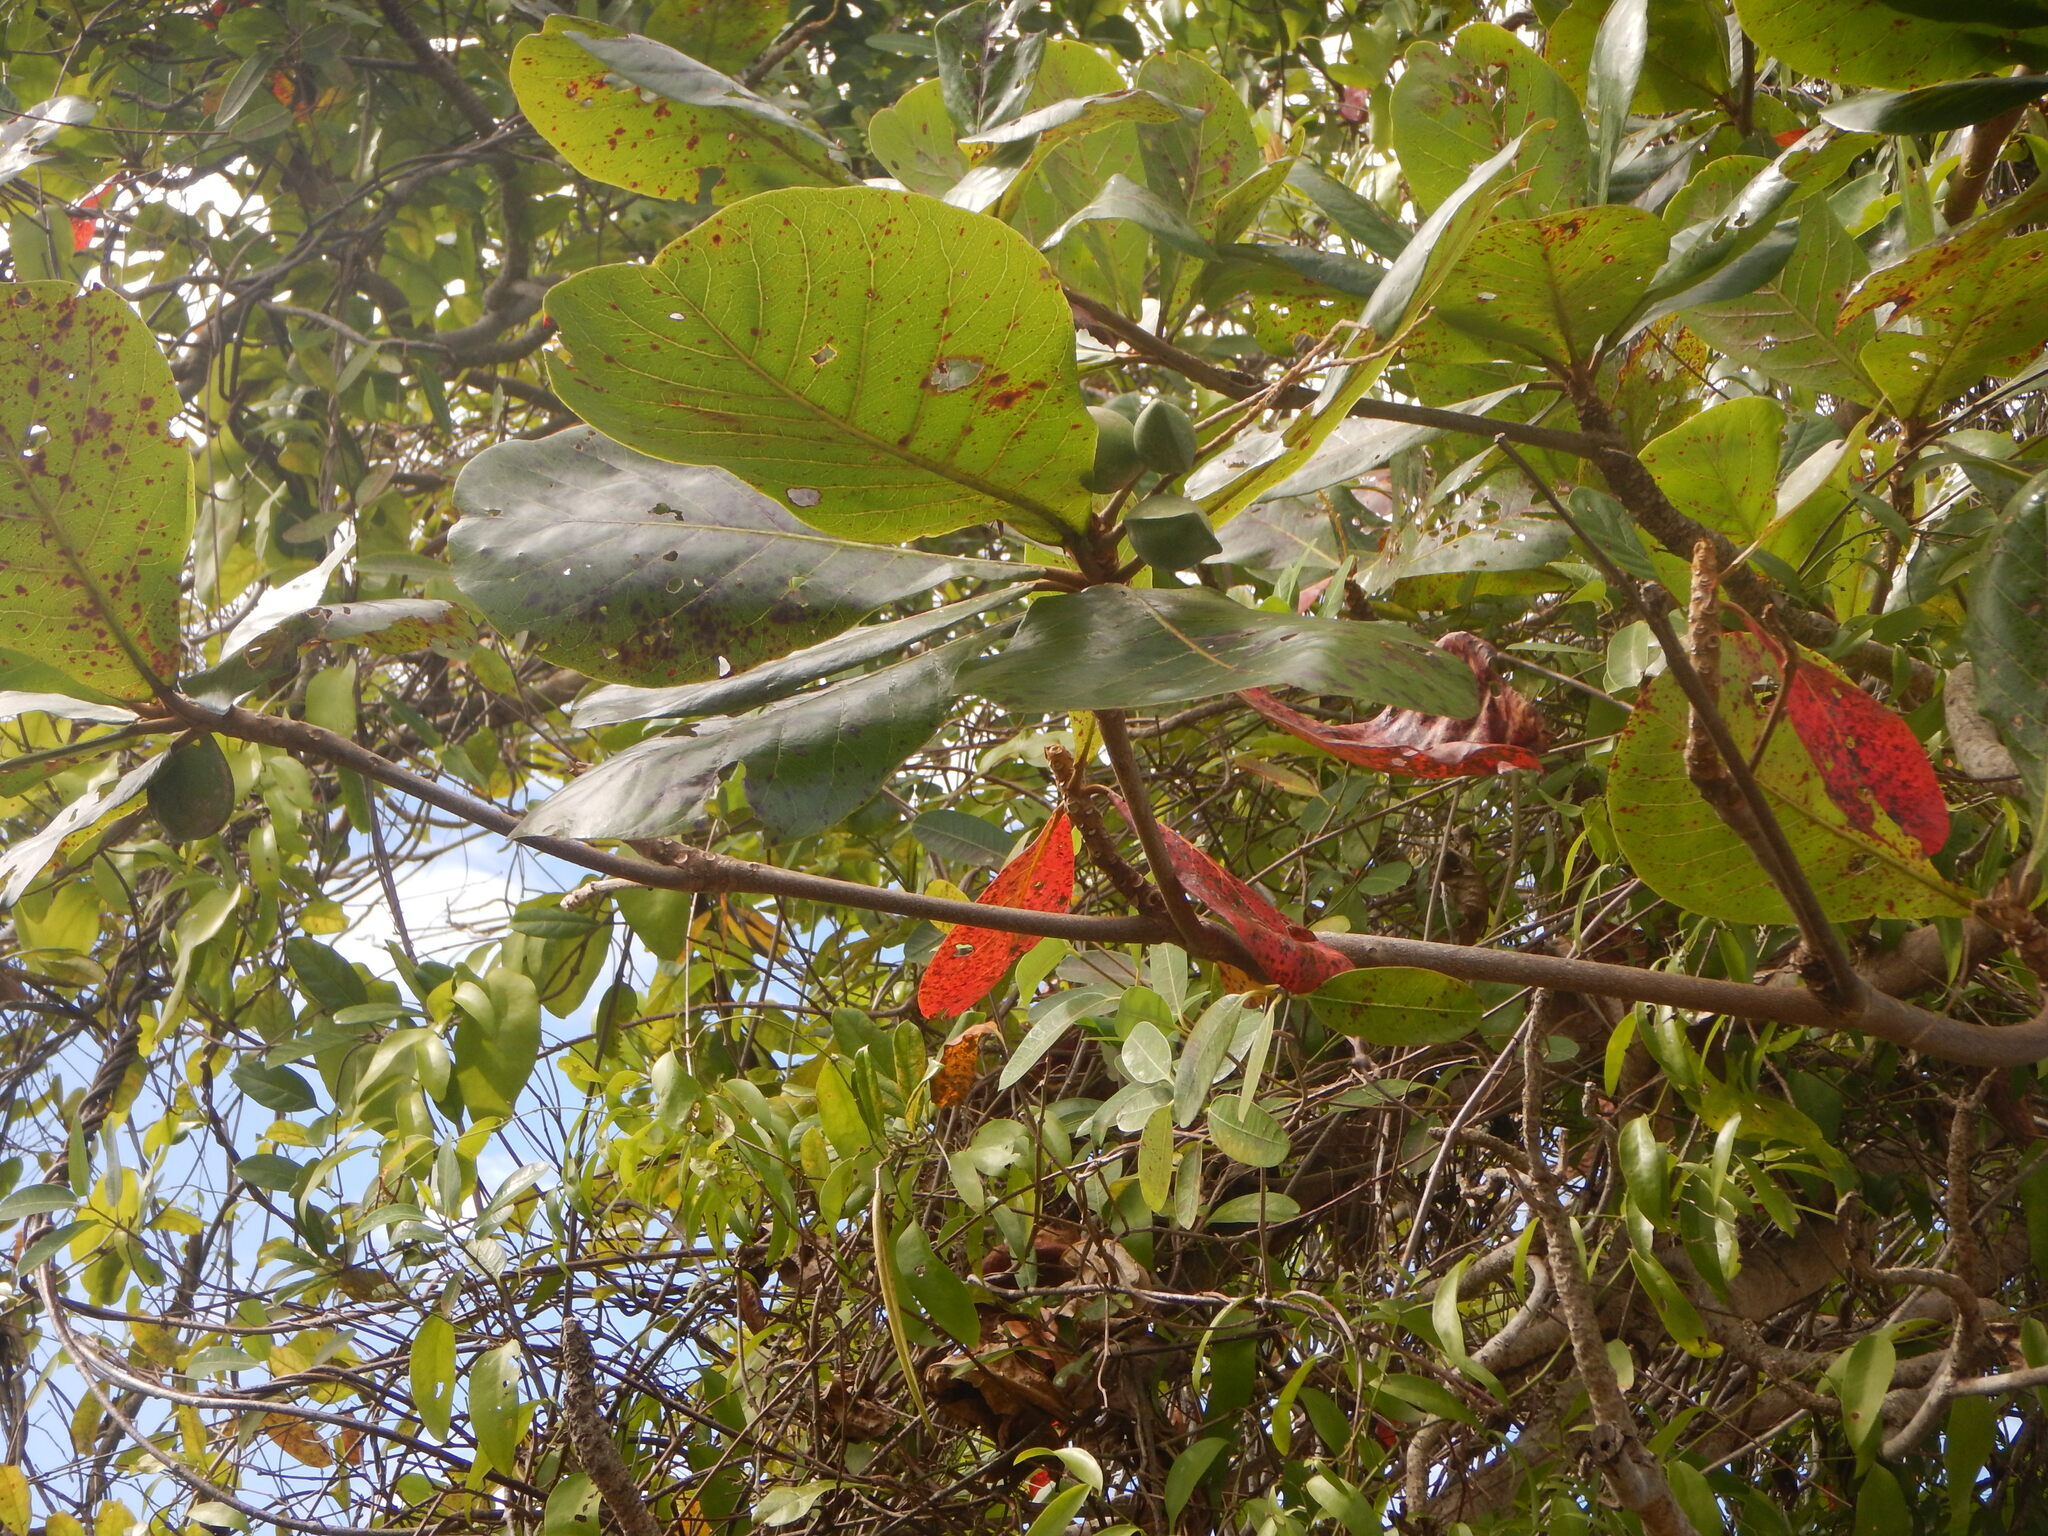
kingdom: Plantae
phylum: Tracheophyta
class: Magnoliopsida
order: Myrtales
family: Combretaceae
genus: Terminalia
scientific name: Terminalia catappa
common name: Tropical almond
